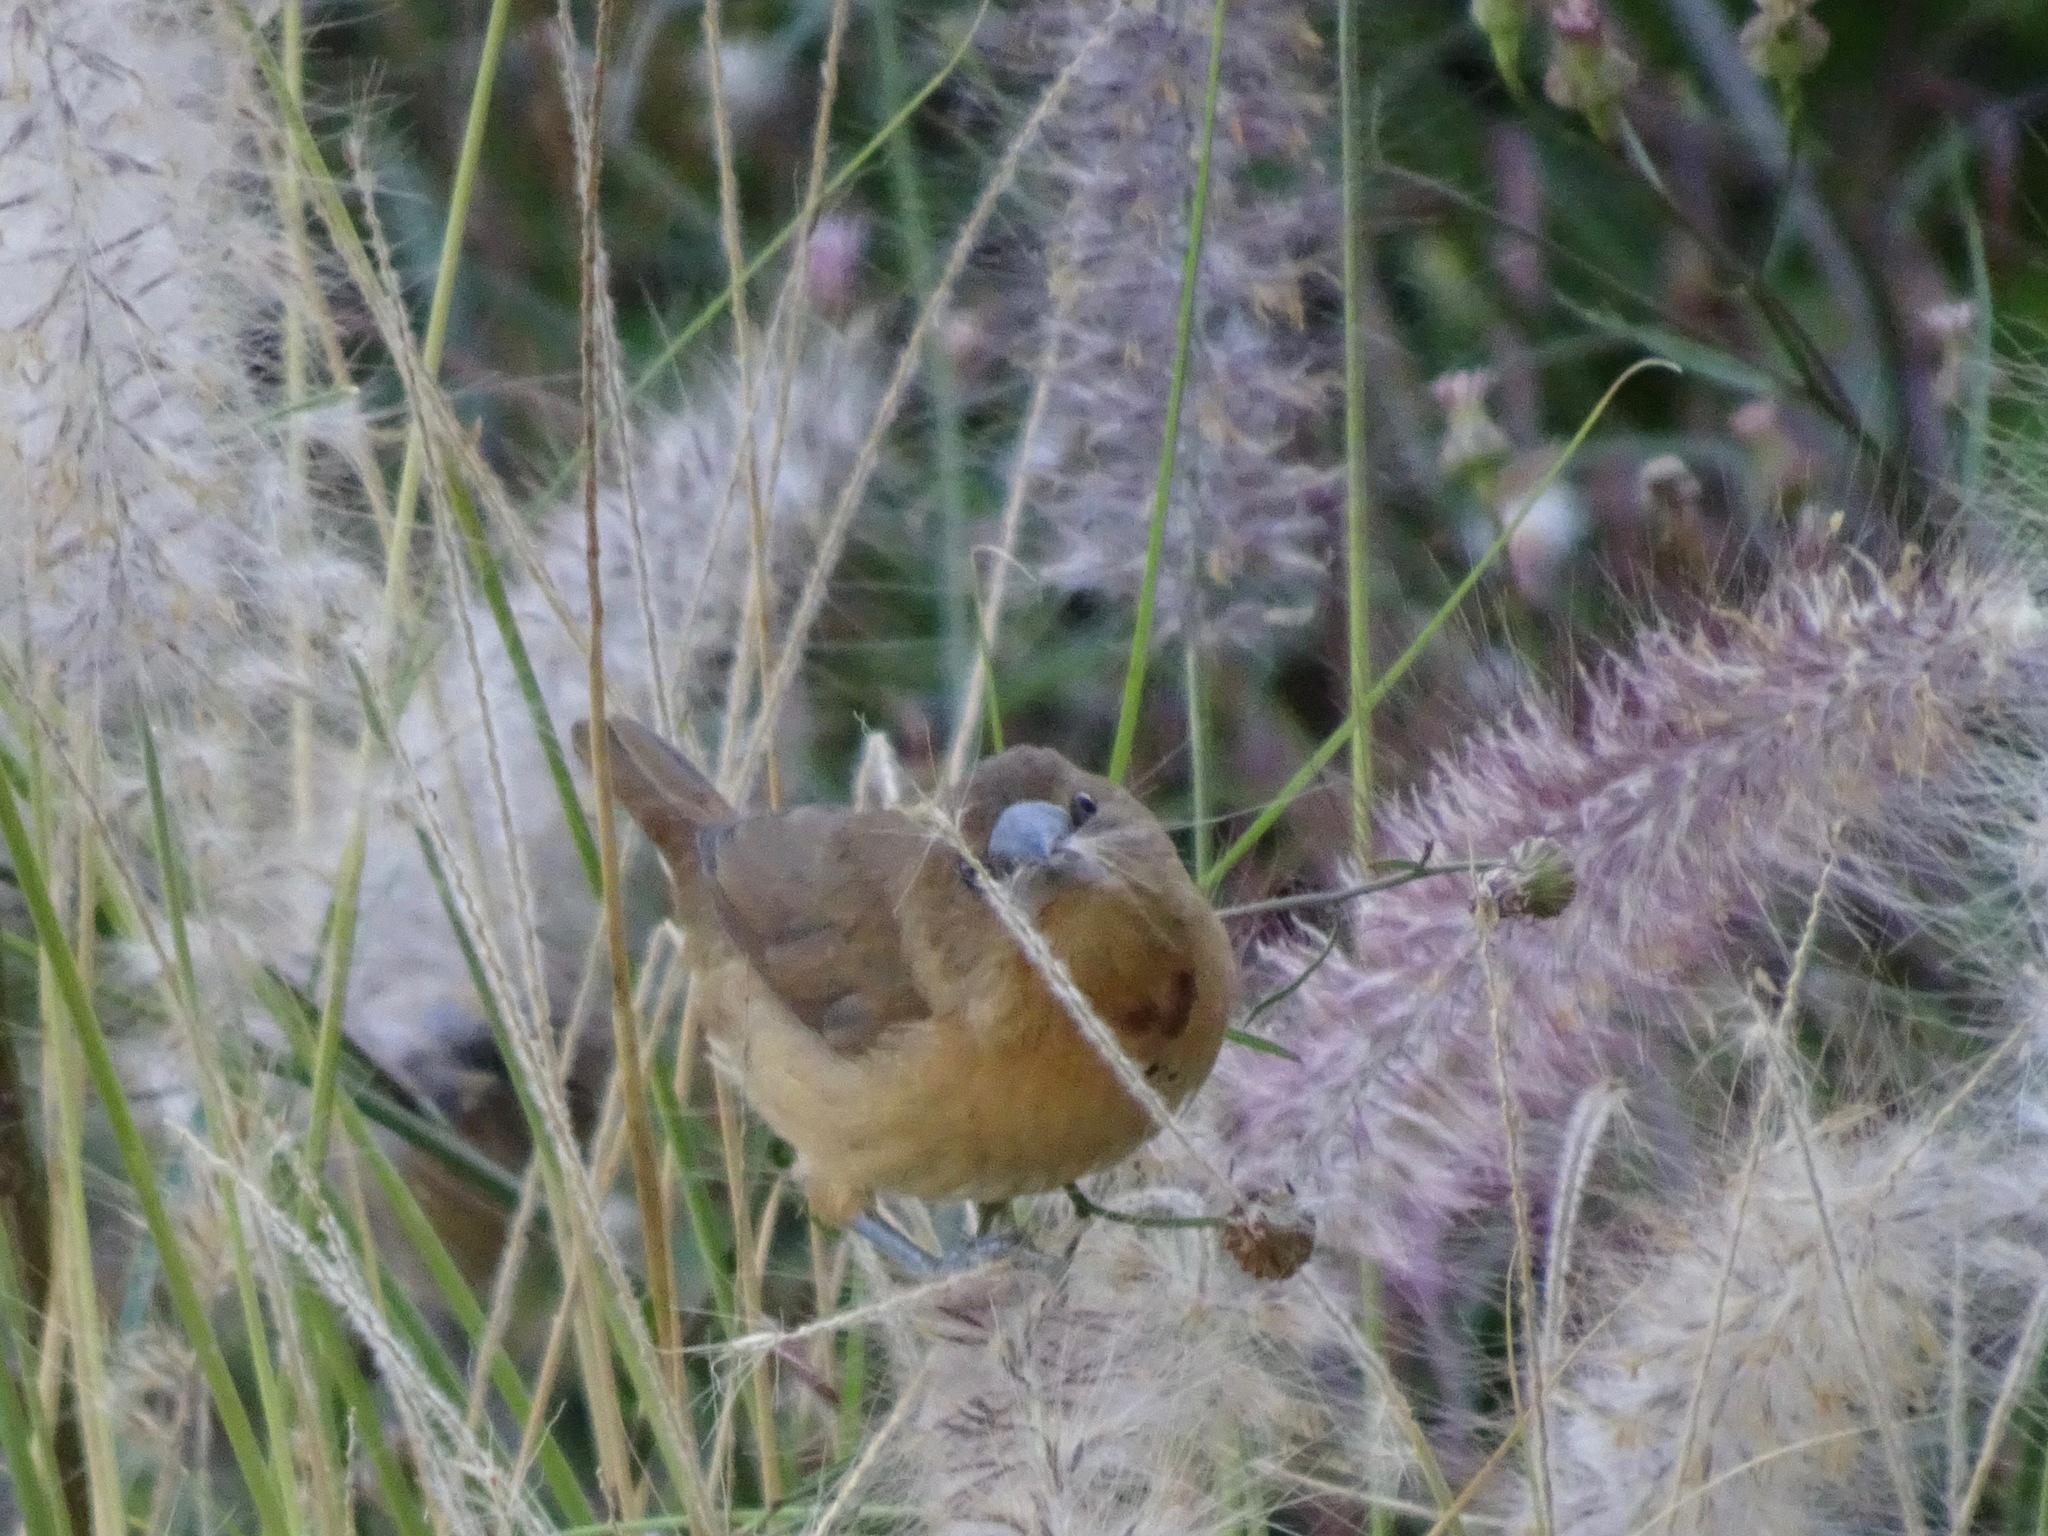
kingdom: Animalia
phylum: Chordata
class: Aves
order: Passeriformes
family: Estrildidae
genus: Lonchura
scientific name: Lonchura punctulata
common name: Scaly-breasted munia
